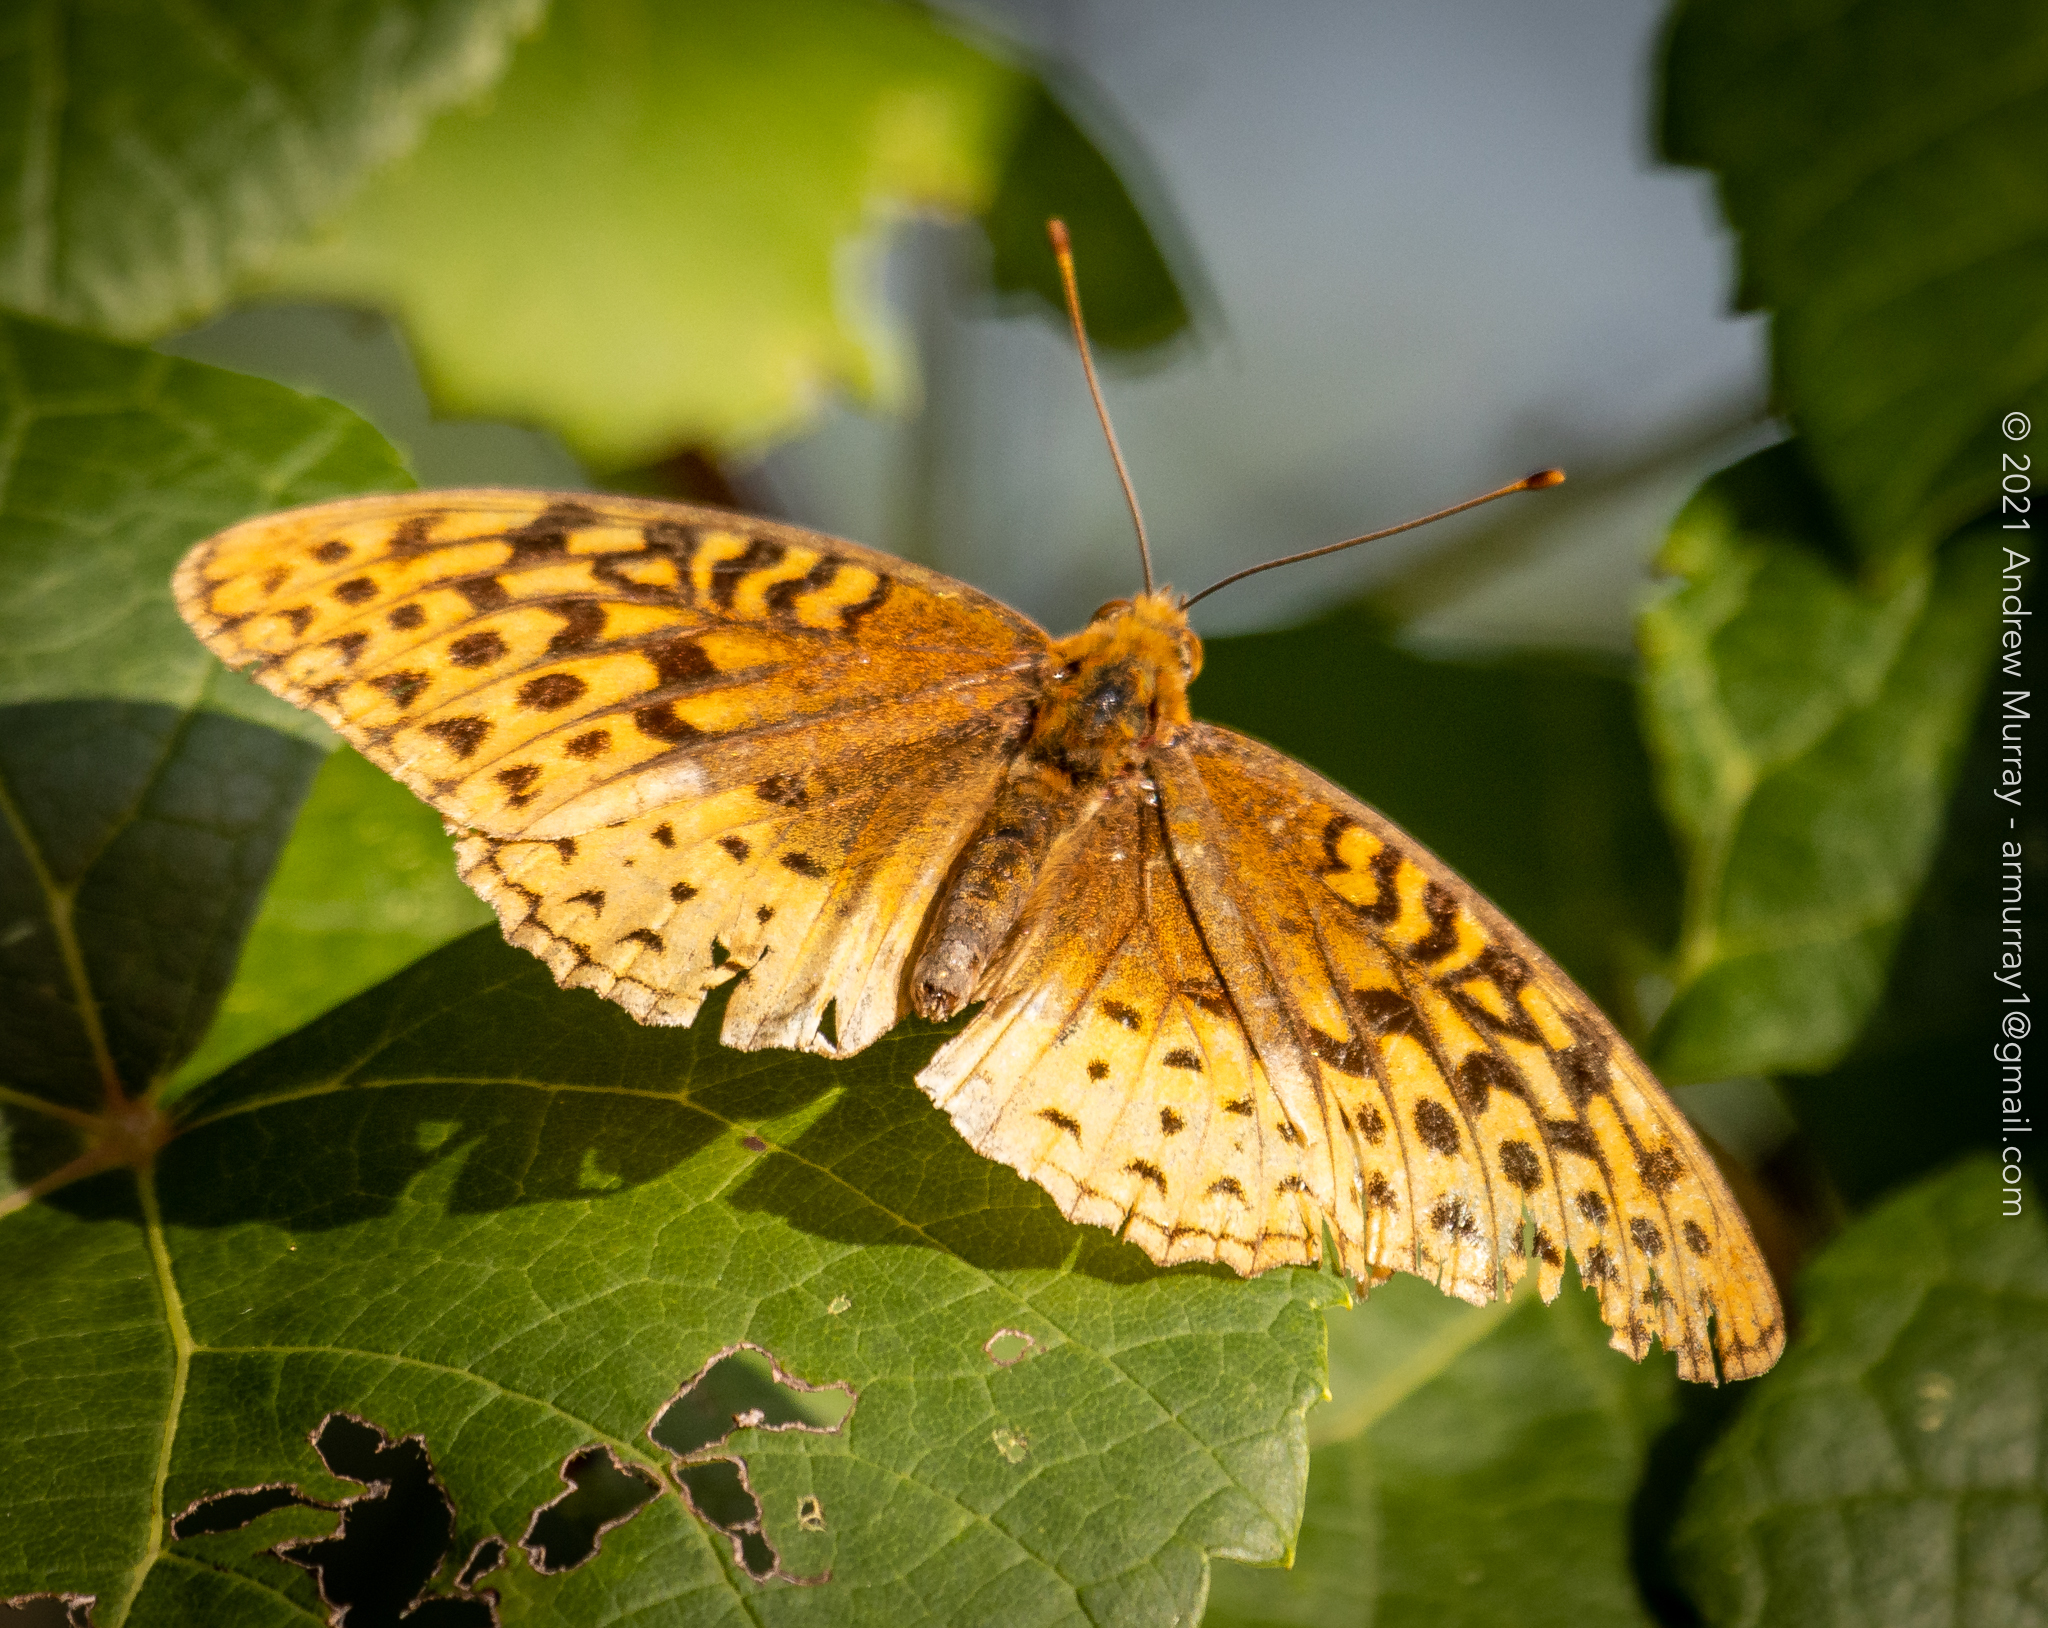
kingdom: Animalia
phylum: Arthropoda
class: Insecta
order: Lepidoptera
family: Nymphalidae
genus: Speyeria
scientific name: Speyeria cybele
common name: Great spangled fritillary
